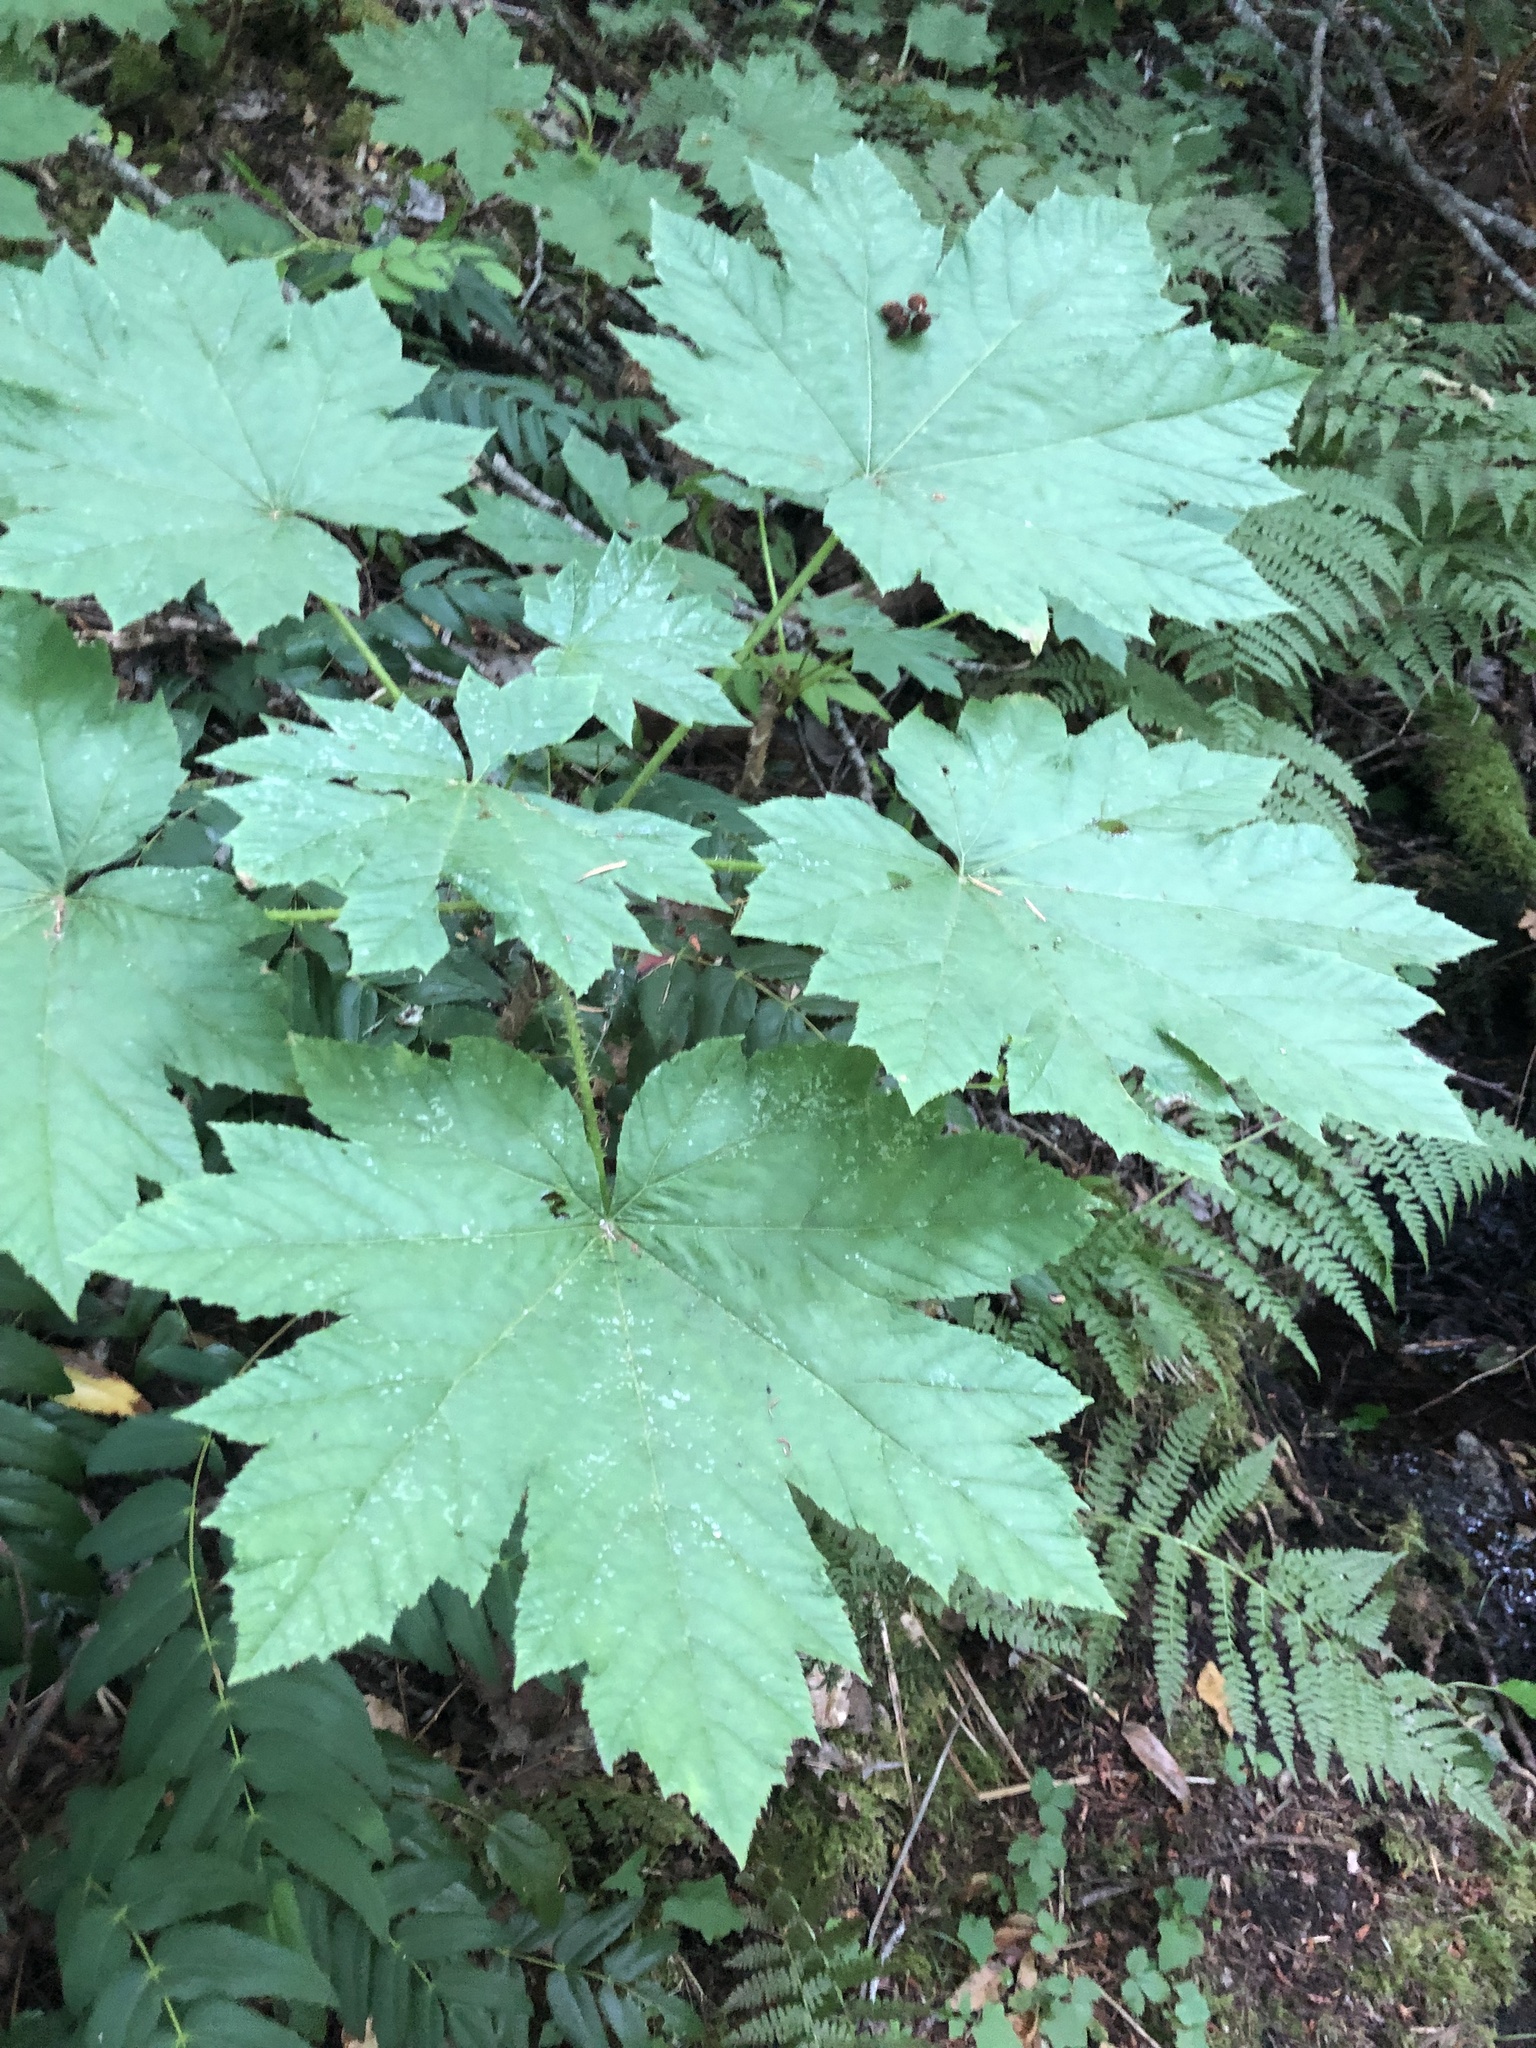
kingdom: Plantae
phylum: Tracheophyta
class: Magnoliopsida
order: Apiales
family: Araliaceae
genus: Oplopanax
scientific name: Oplopanax horridus
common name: Devil's walking-stick
